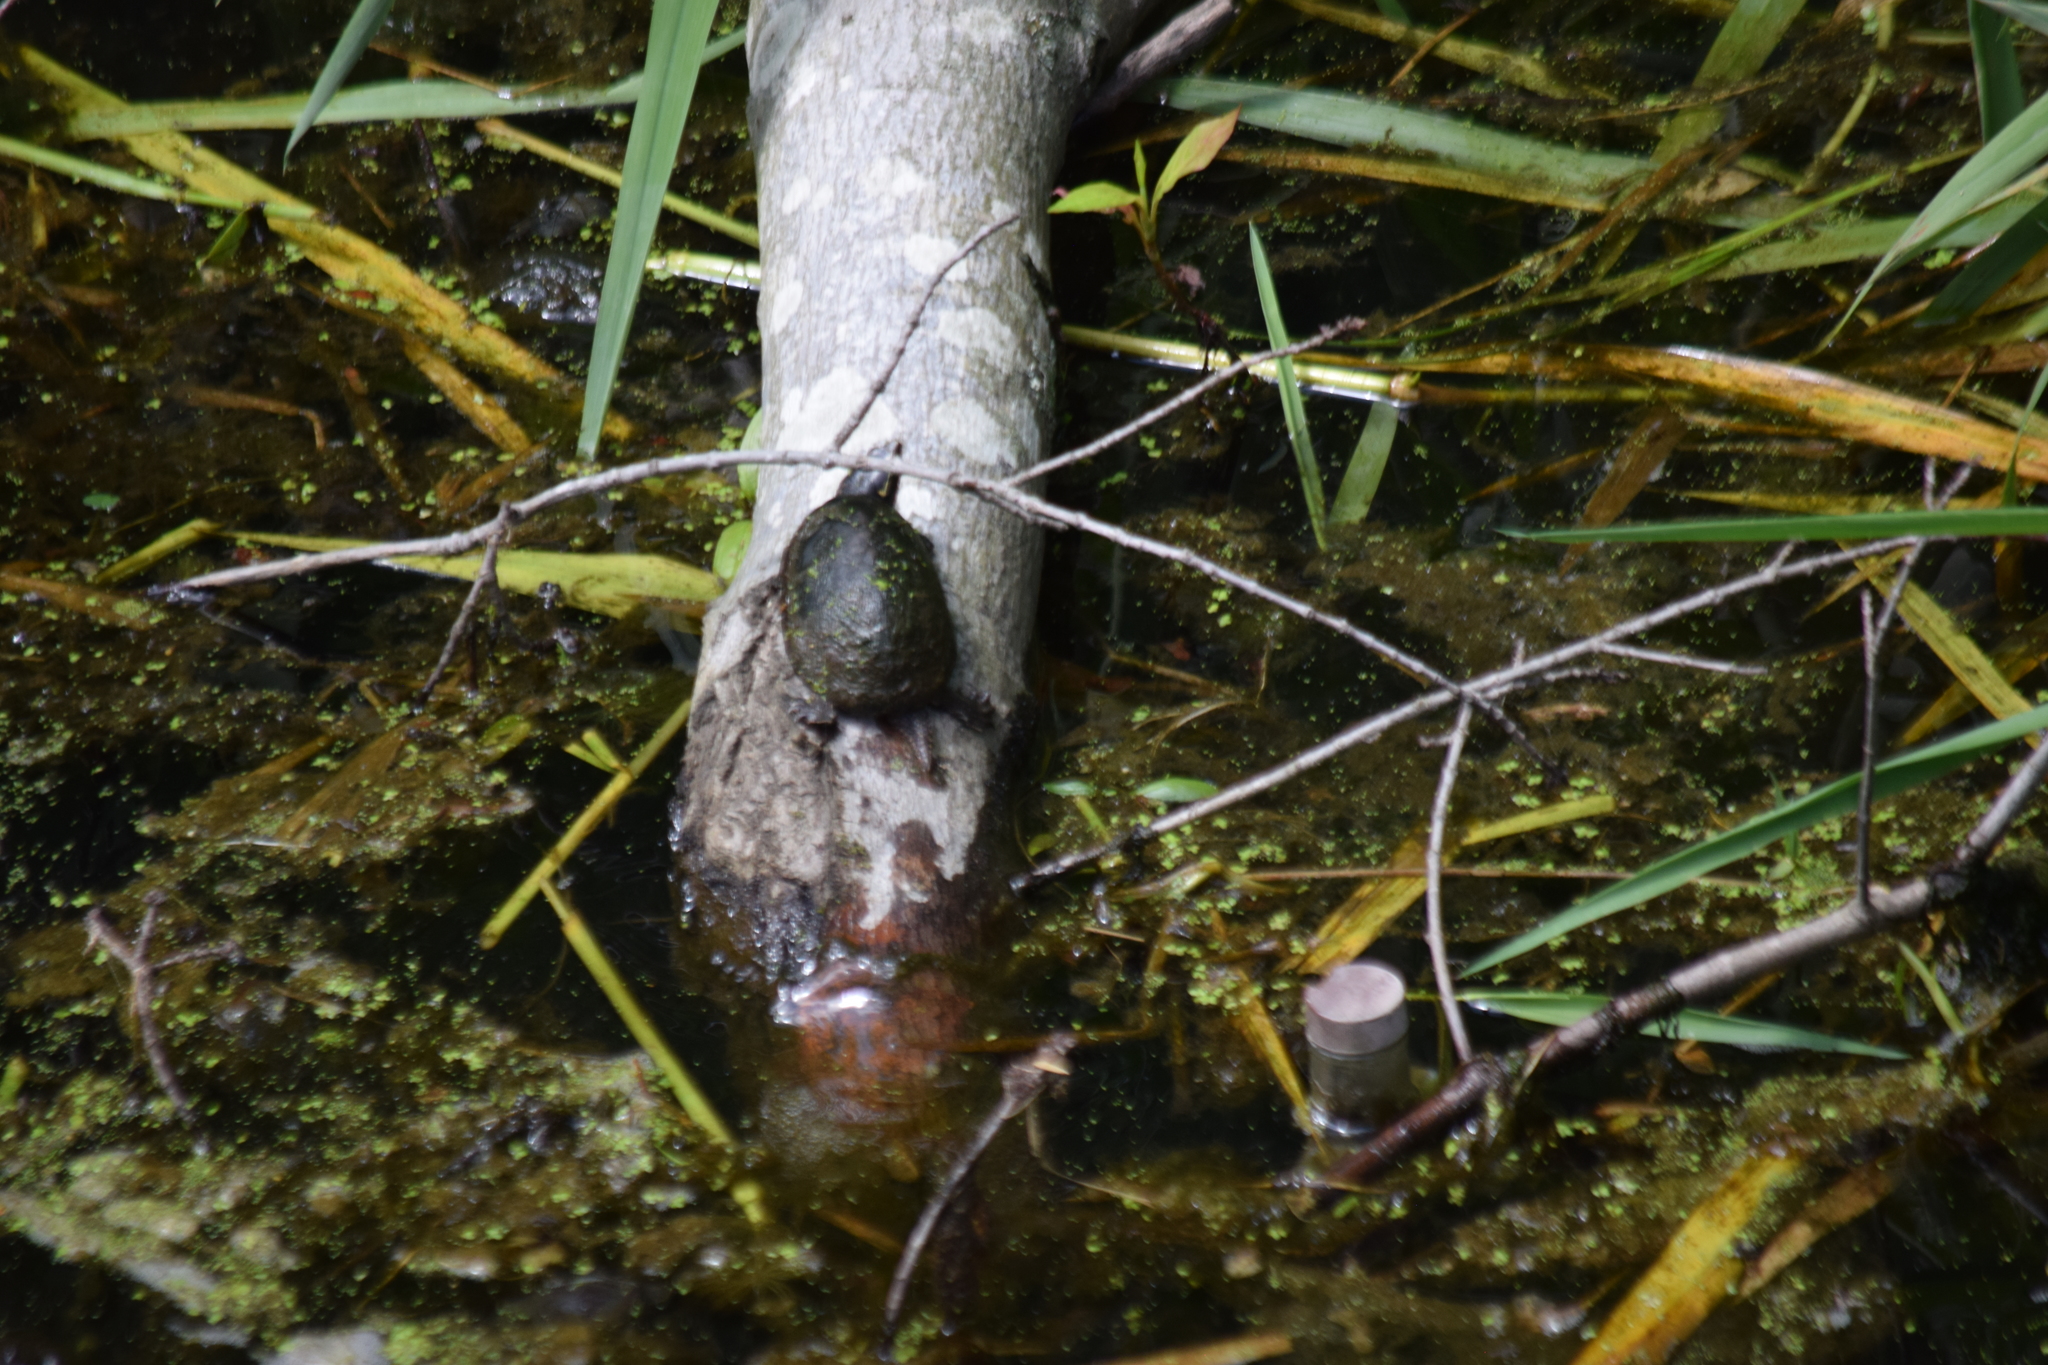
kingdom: Animalia
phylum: Chordata
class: Testudines
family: Kinosternidae
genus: Sternotherus
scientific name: Sternotherus odoratus
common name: Common musk turtle
